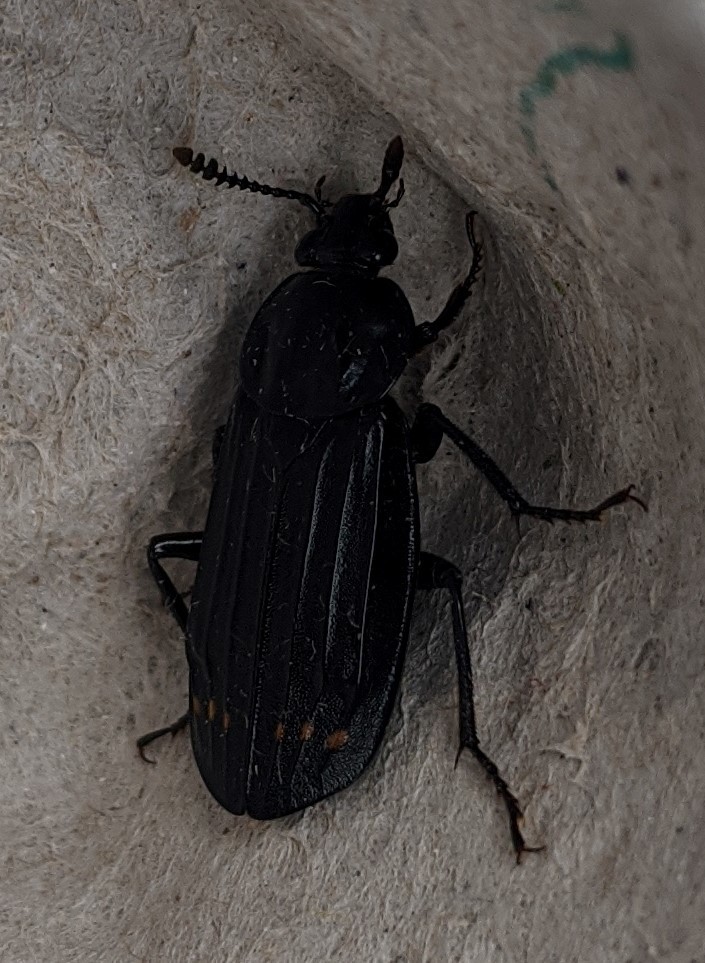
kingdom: Animalia
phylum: Arthropoda
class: Insecta
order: Coleoptera
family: Staphylinidae
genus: Necrodes
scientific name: Necrodes surinamensis
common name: Red-lined carrion beetle
